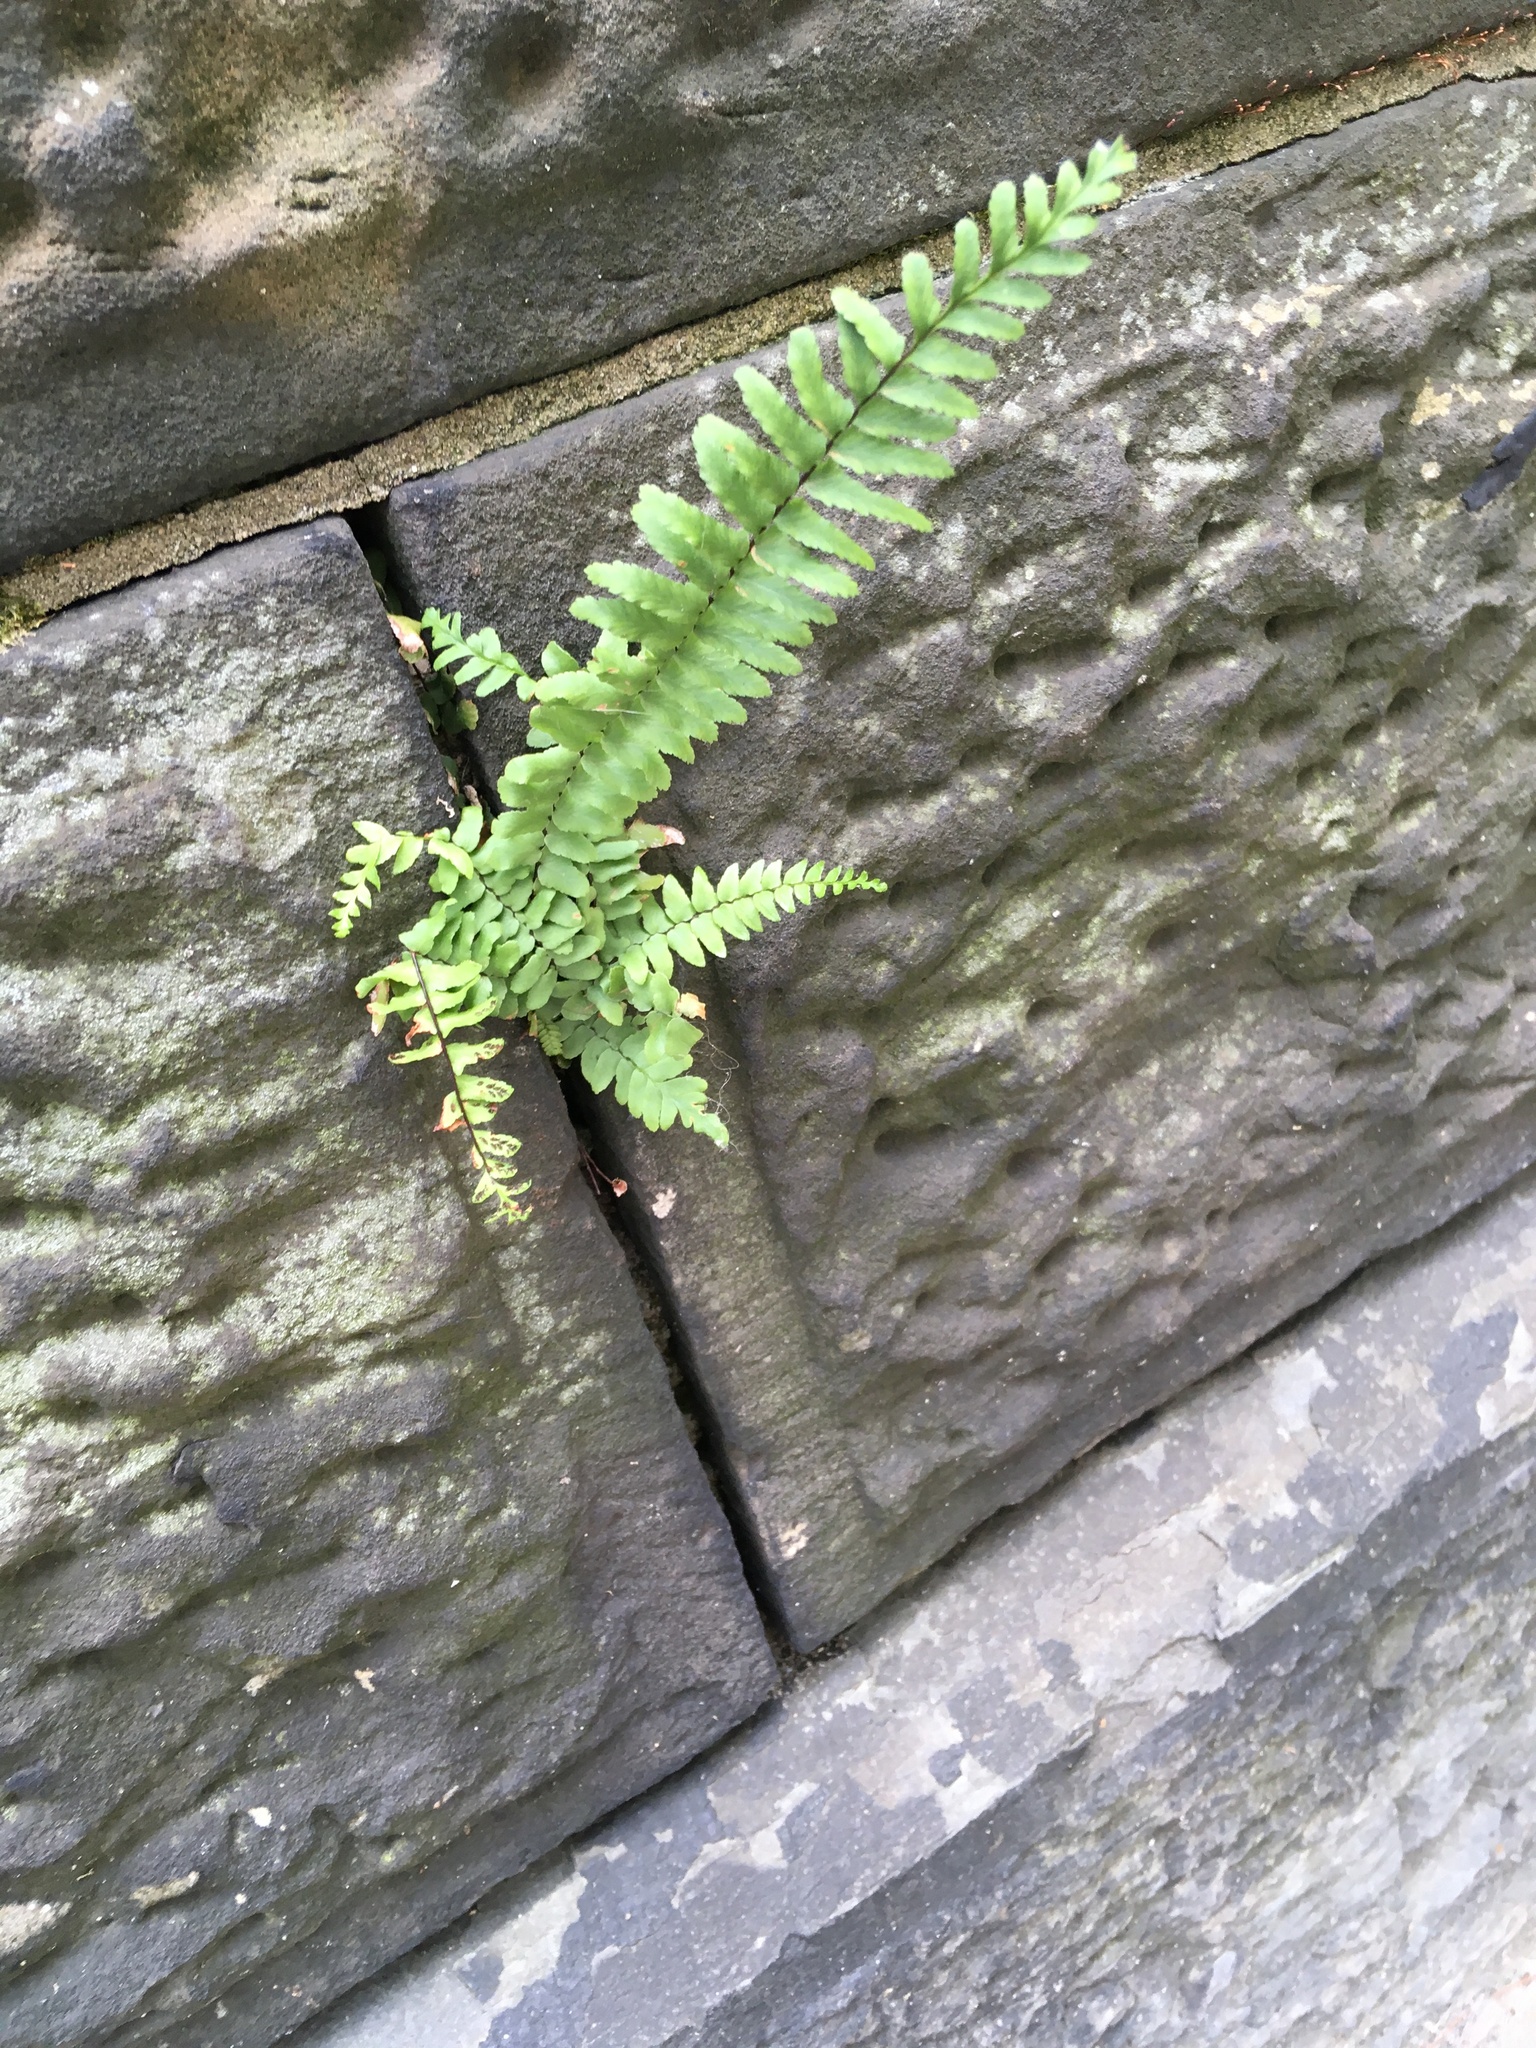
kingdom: Plantae
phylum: Tracheophyta
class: Polypodiopsida
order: Polypodiales
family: Aspleniaceae
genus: Asplenium
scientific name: Asplenium platyneuron
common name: Ebony spleenwort
